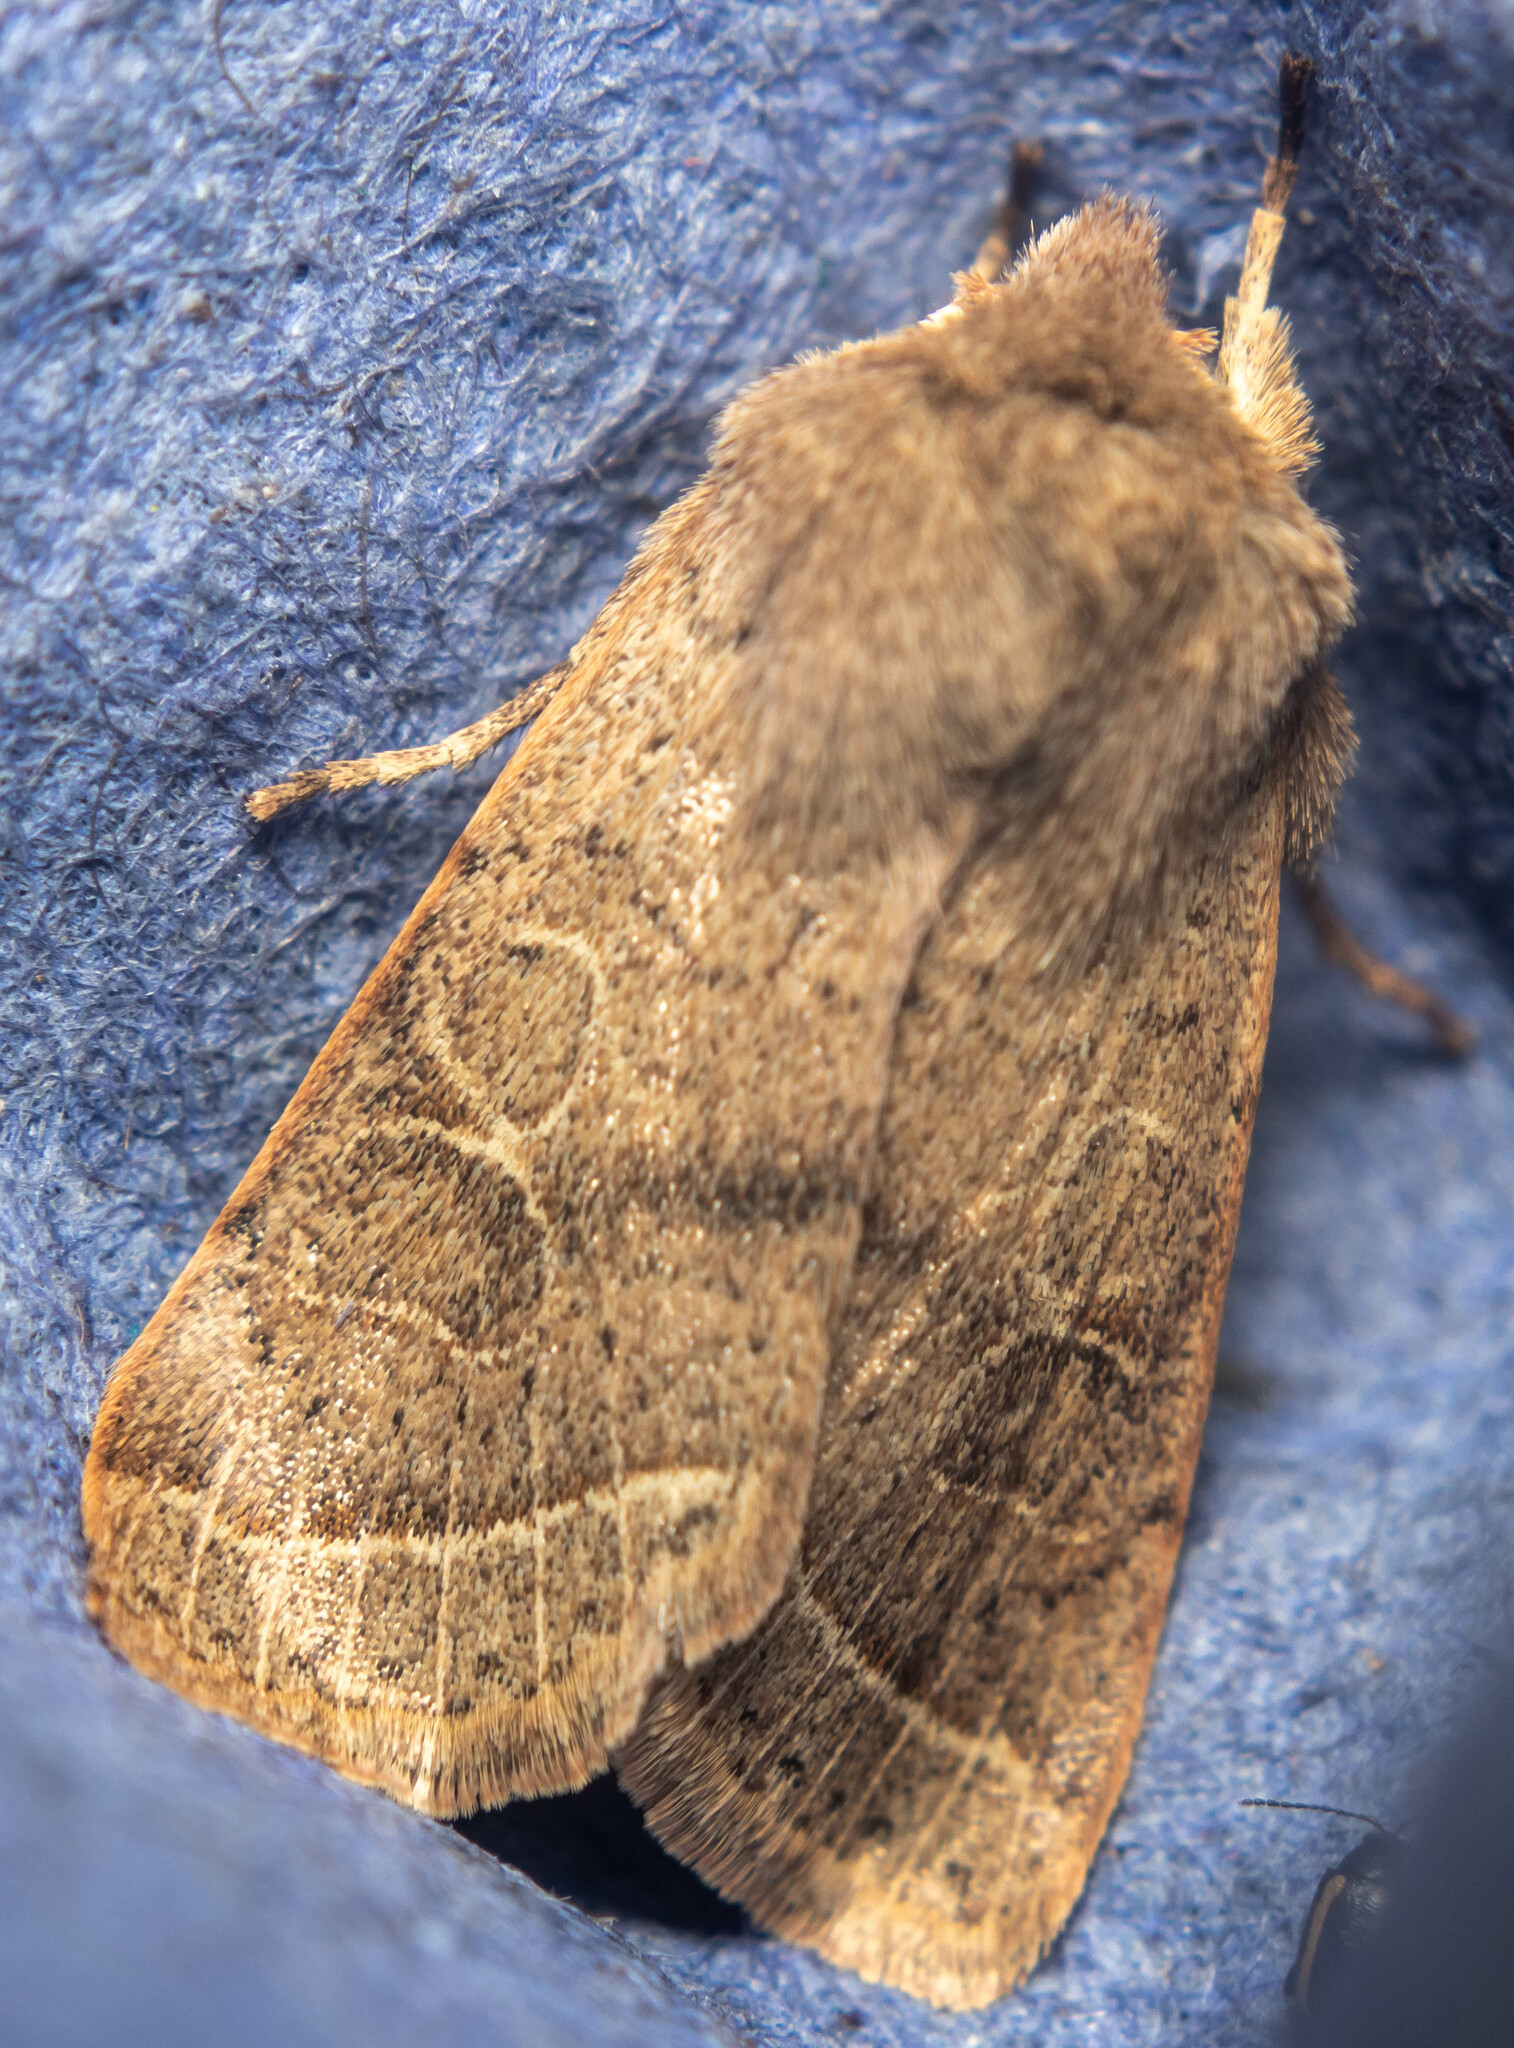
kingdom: Animalia
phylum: Arthropoda
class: Insecta
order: Lepidoptera
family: Noctuidae
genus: Orthosia
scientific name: Orthosia cerasi
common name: Common quaker
